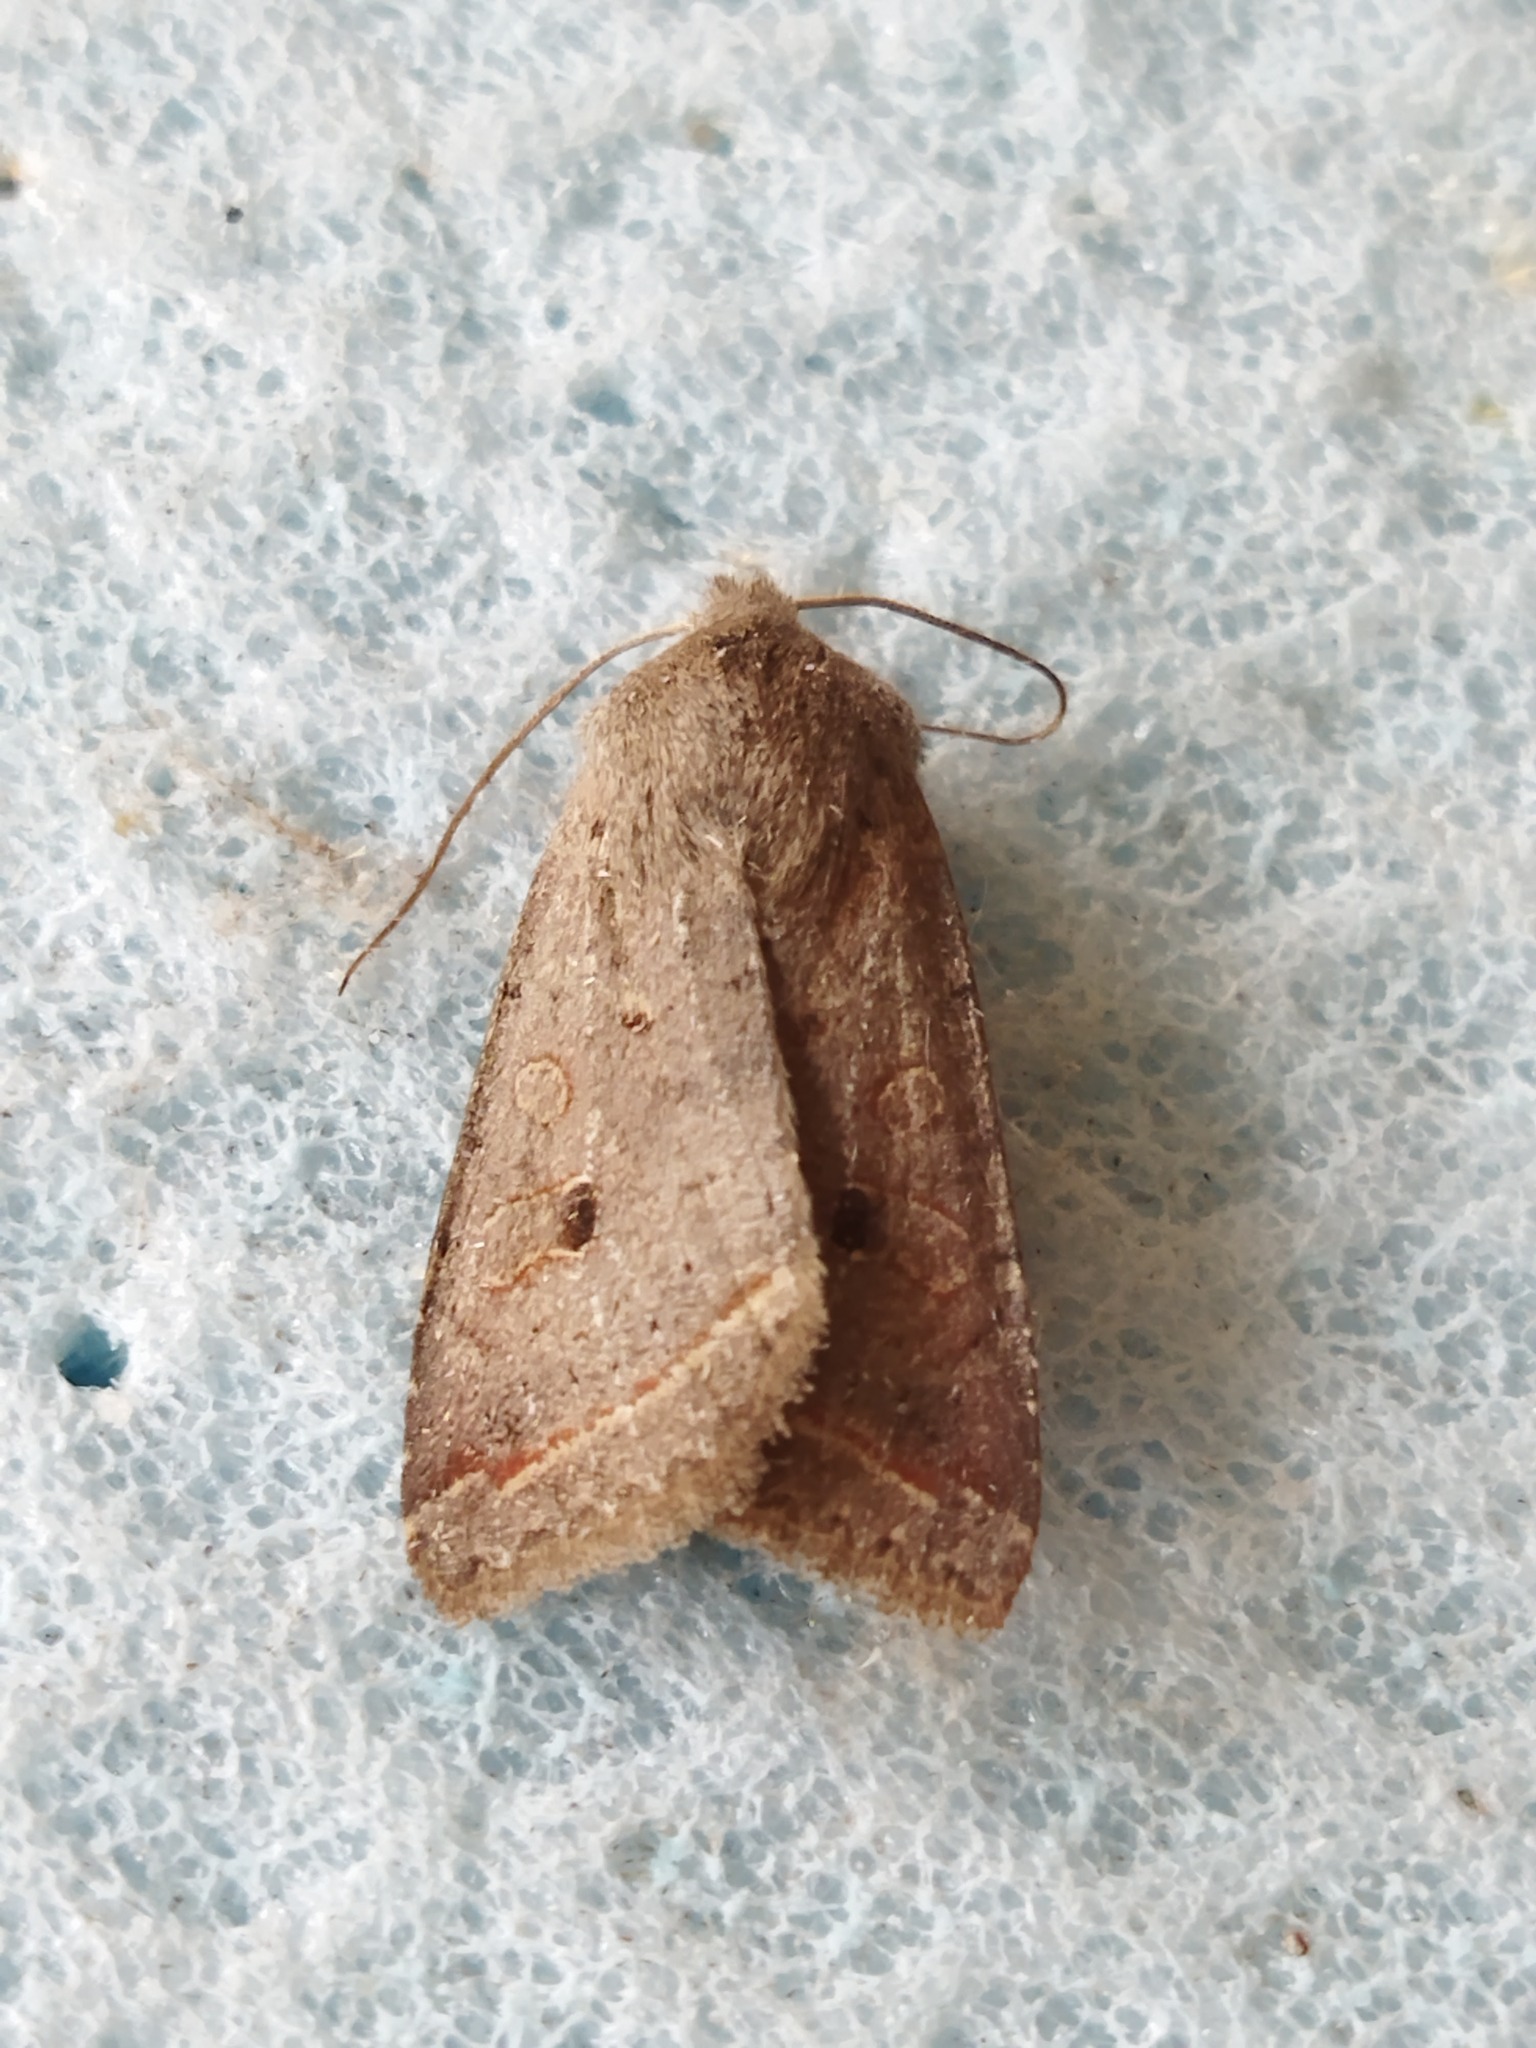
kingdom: Animalia
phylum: Arthropoda
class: Insecta
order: Lepidoptera
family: Noctuidae
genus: Agrochola
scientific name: Agrochola lota
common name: Red-line quaker
